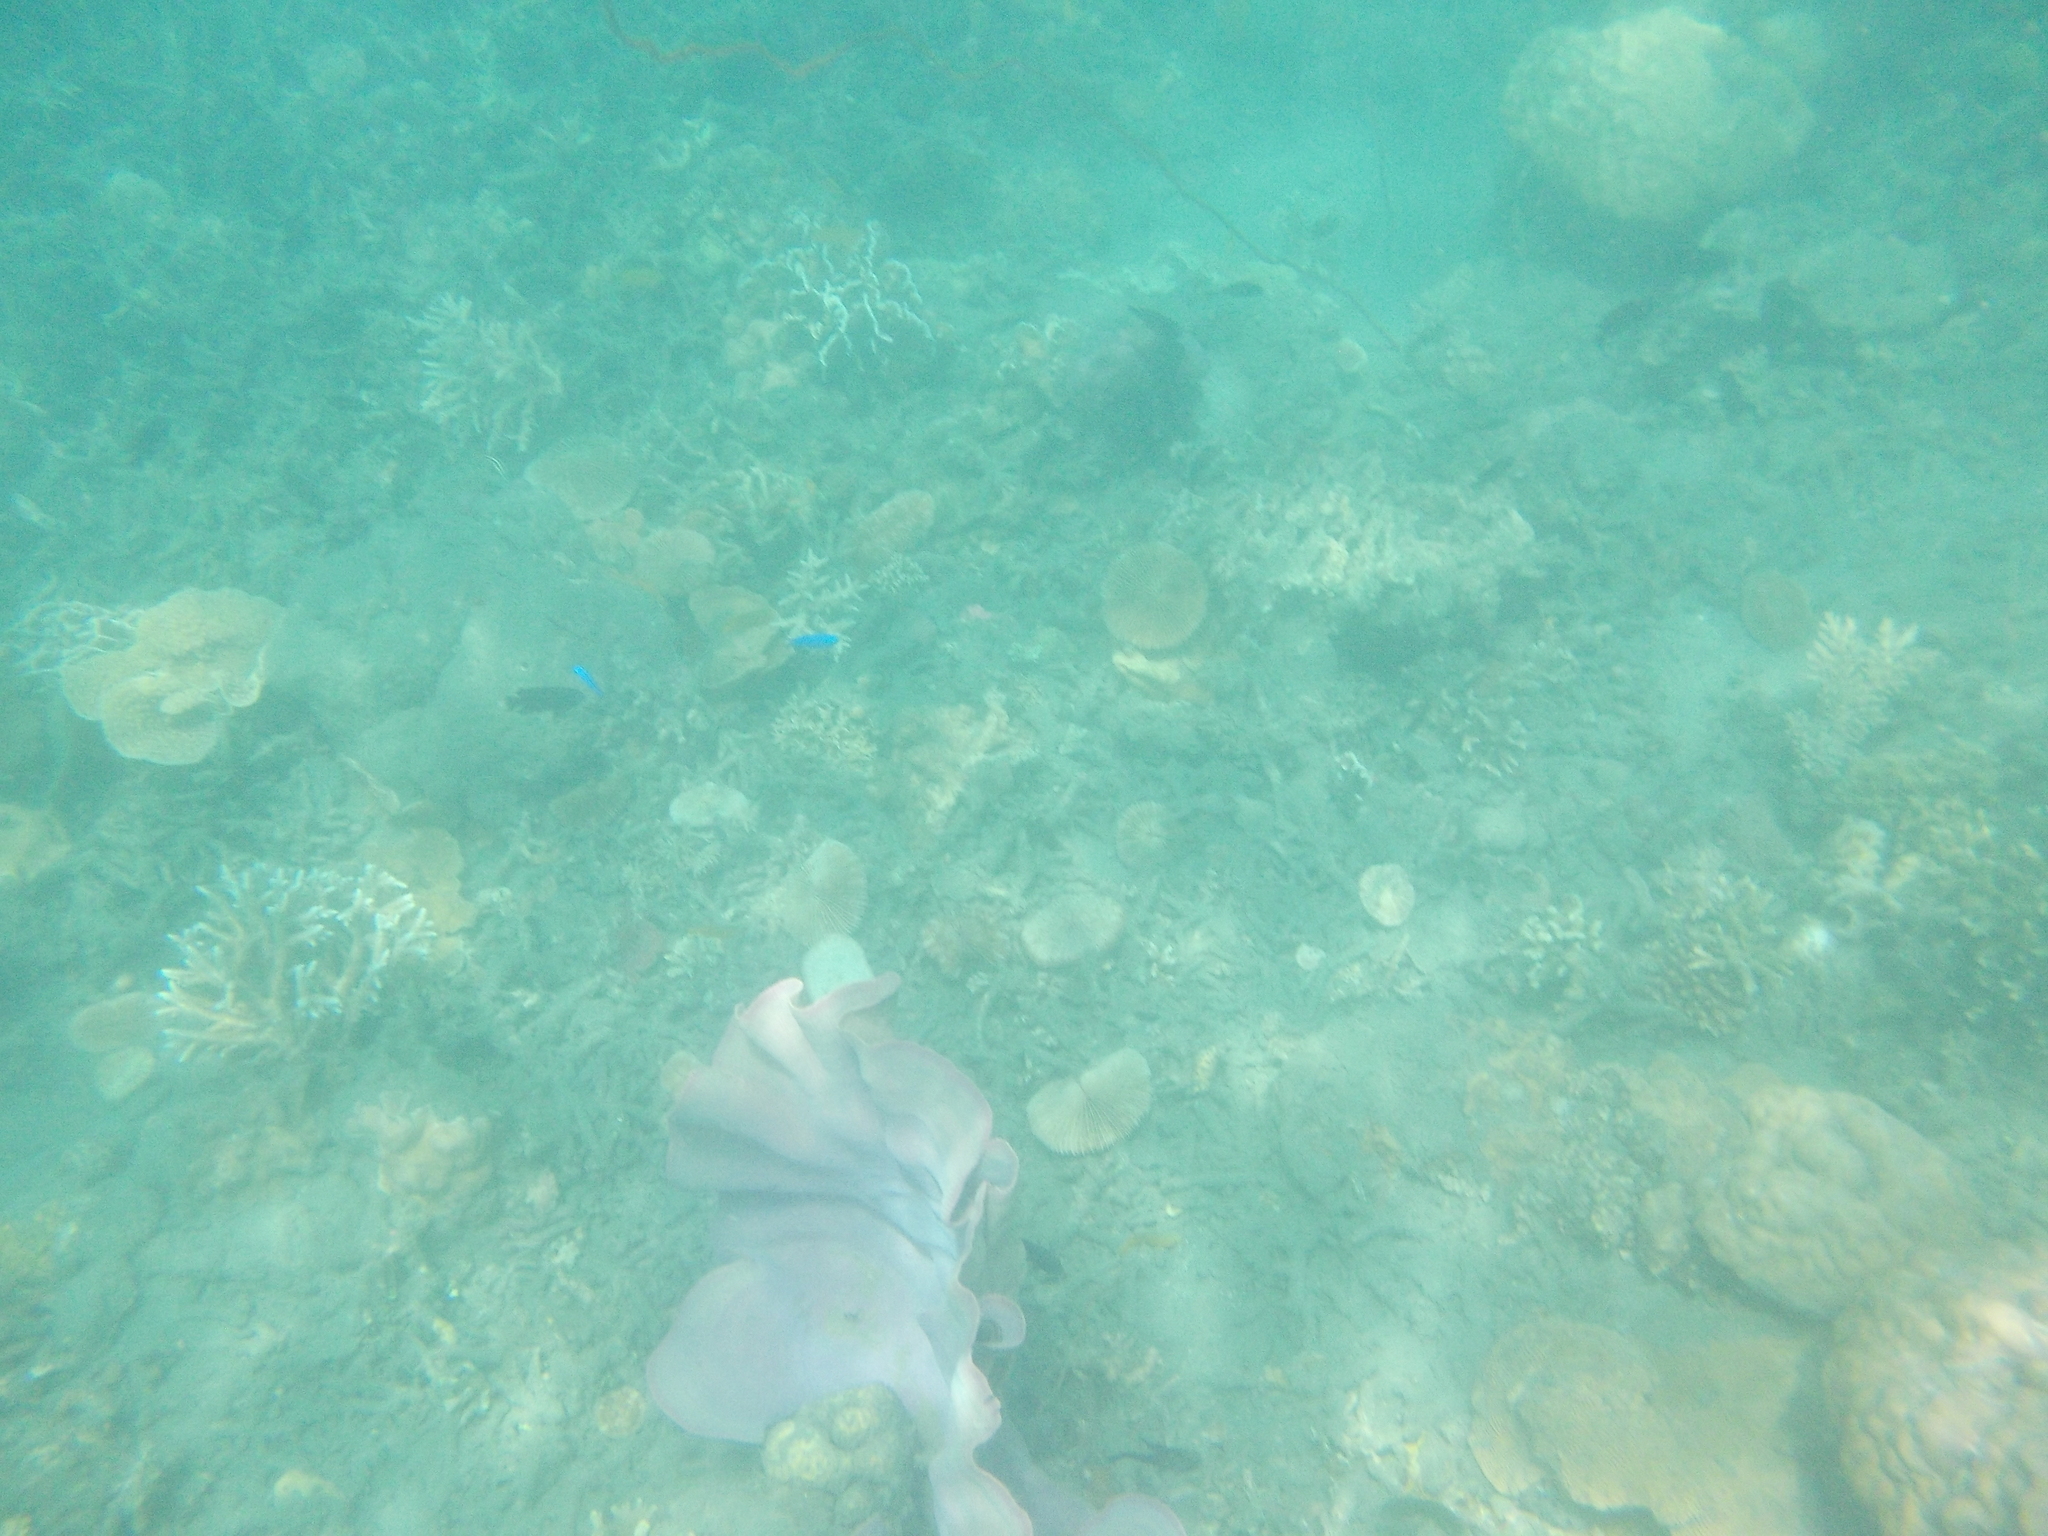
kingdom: Animalia
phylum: Porifera
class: Demospongiae
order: Verongiida
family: Ianthellidae
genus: Ianthella
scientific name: Ianthella basta
